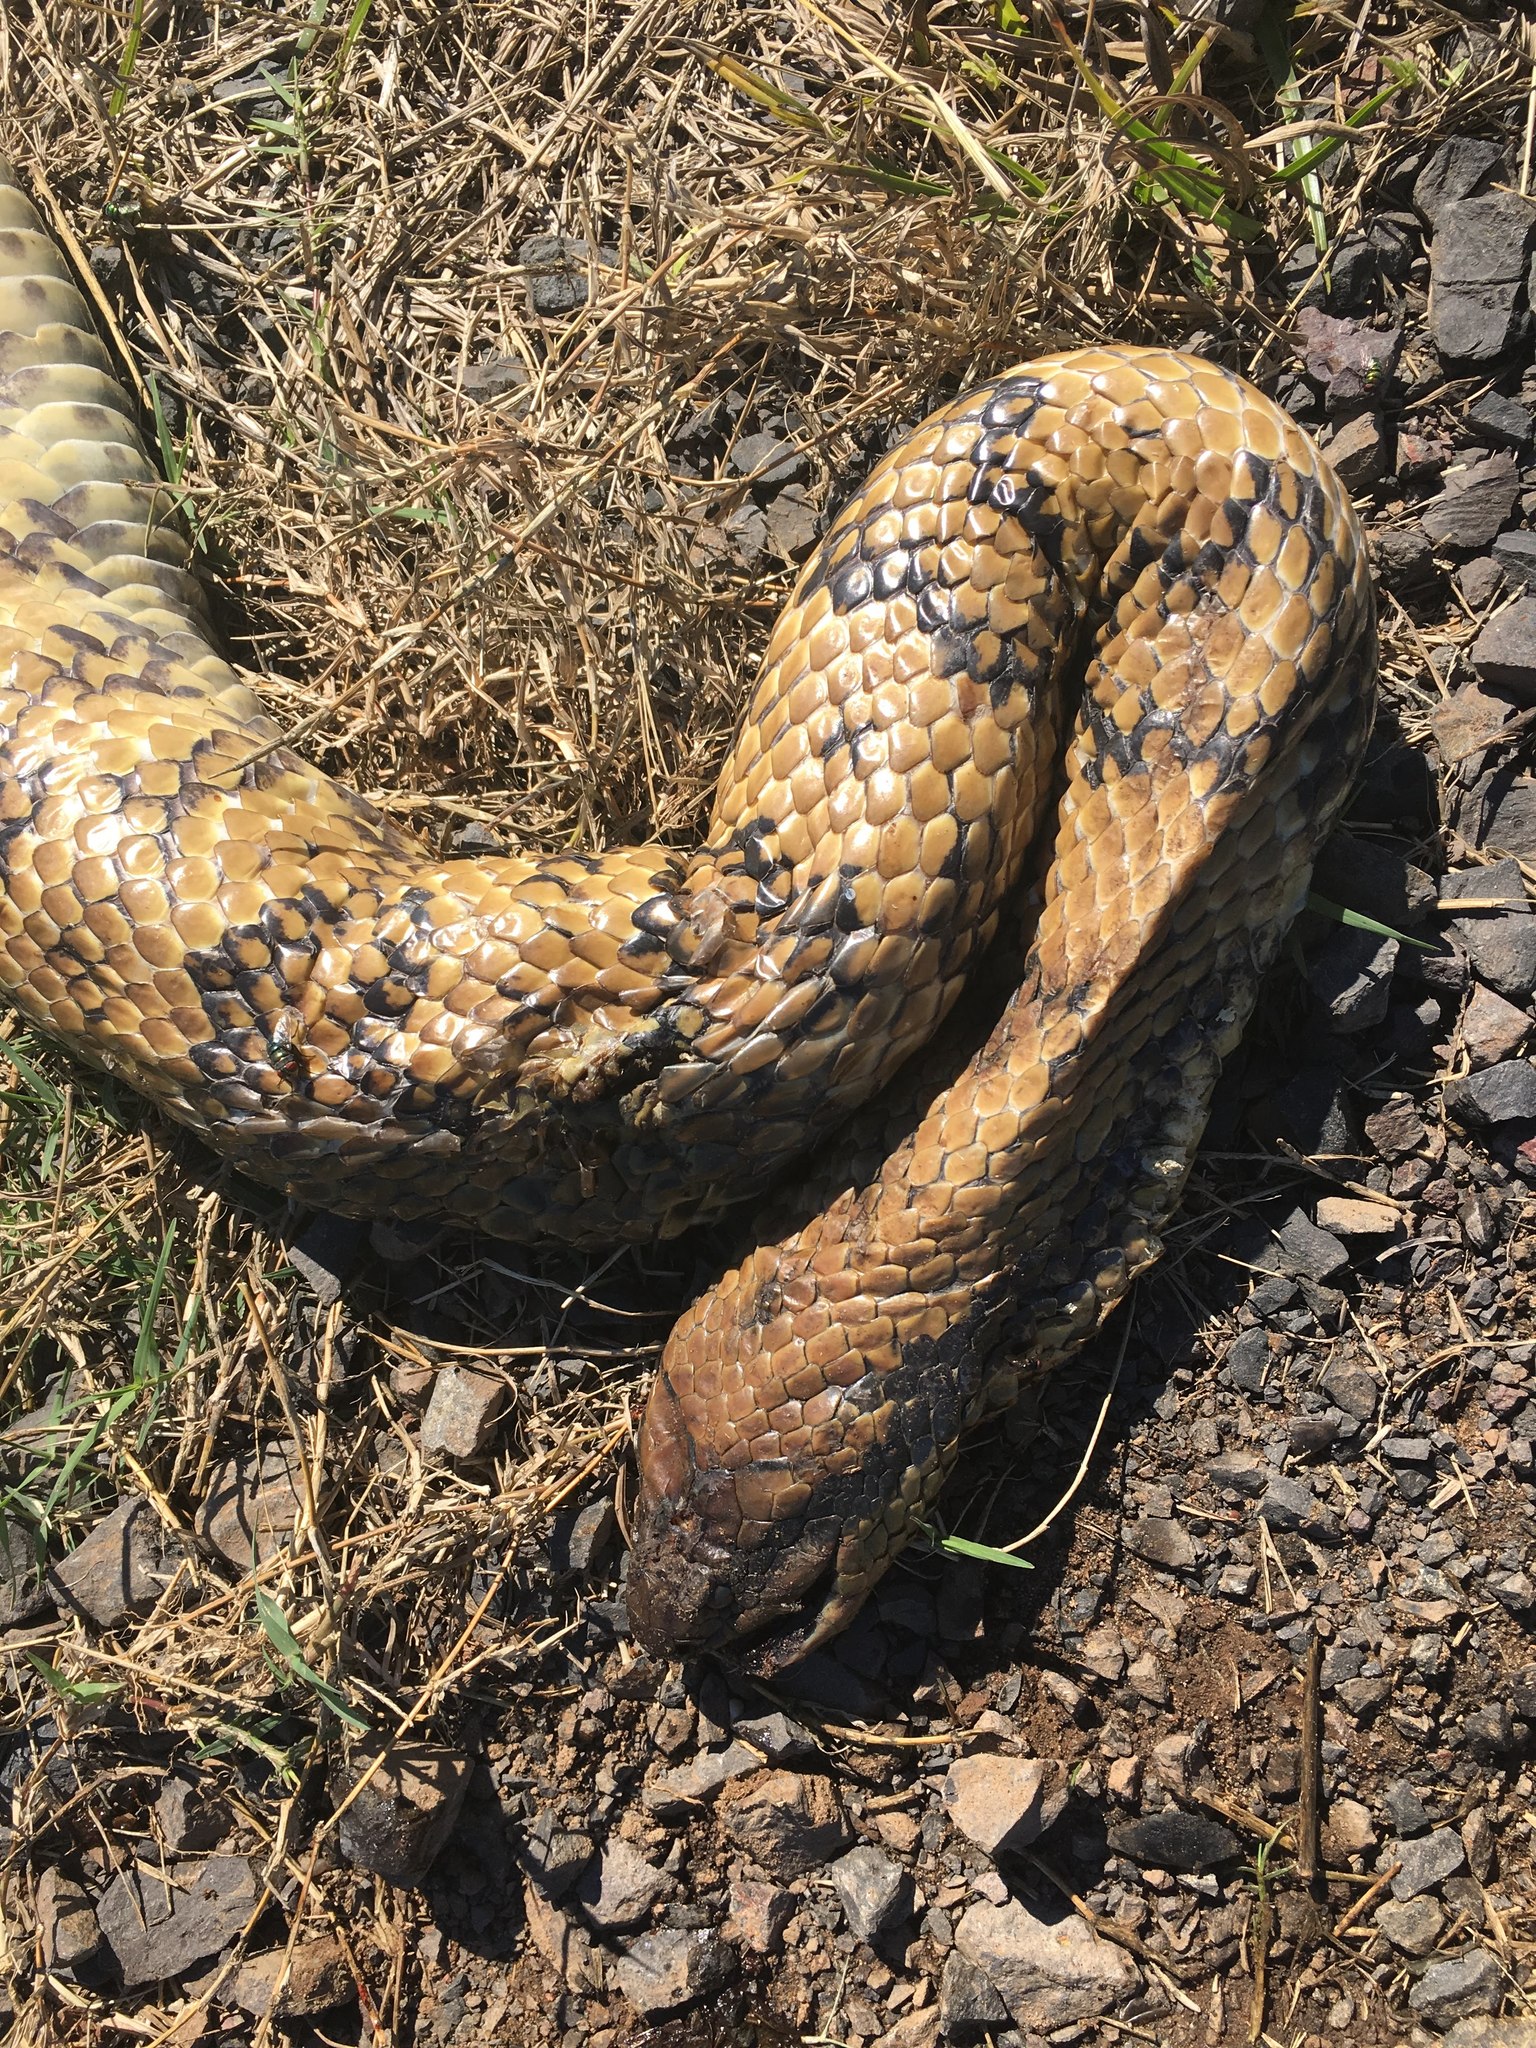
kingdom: Animalia
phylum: Chordata
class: Squamata
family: Colubridae
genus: Hydrodynastes
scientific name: Hydrodynastes gigas
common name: False water cobra
